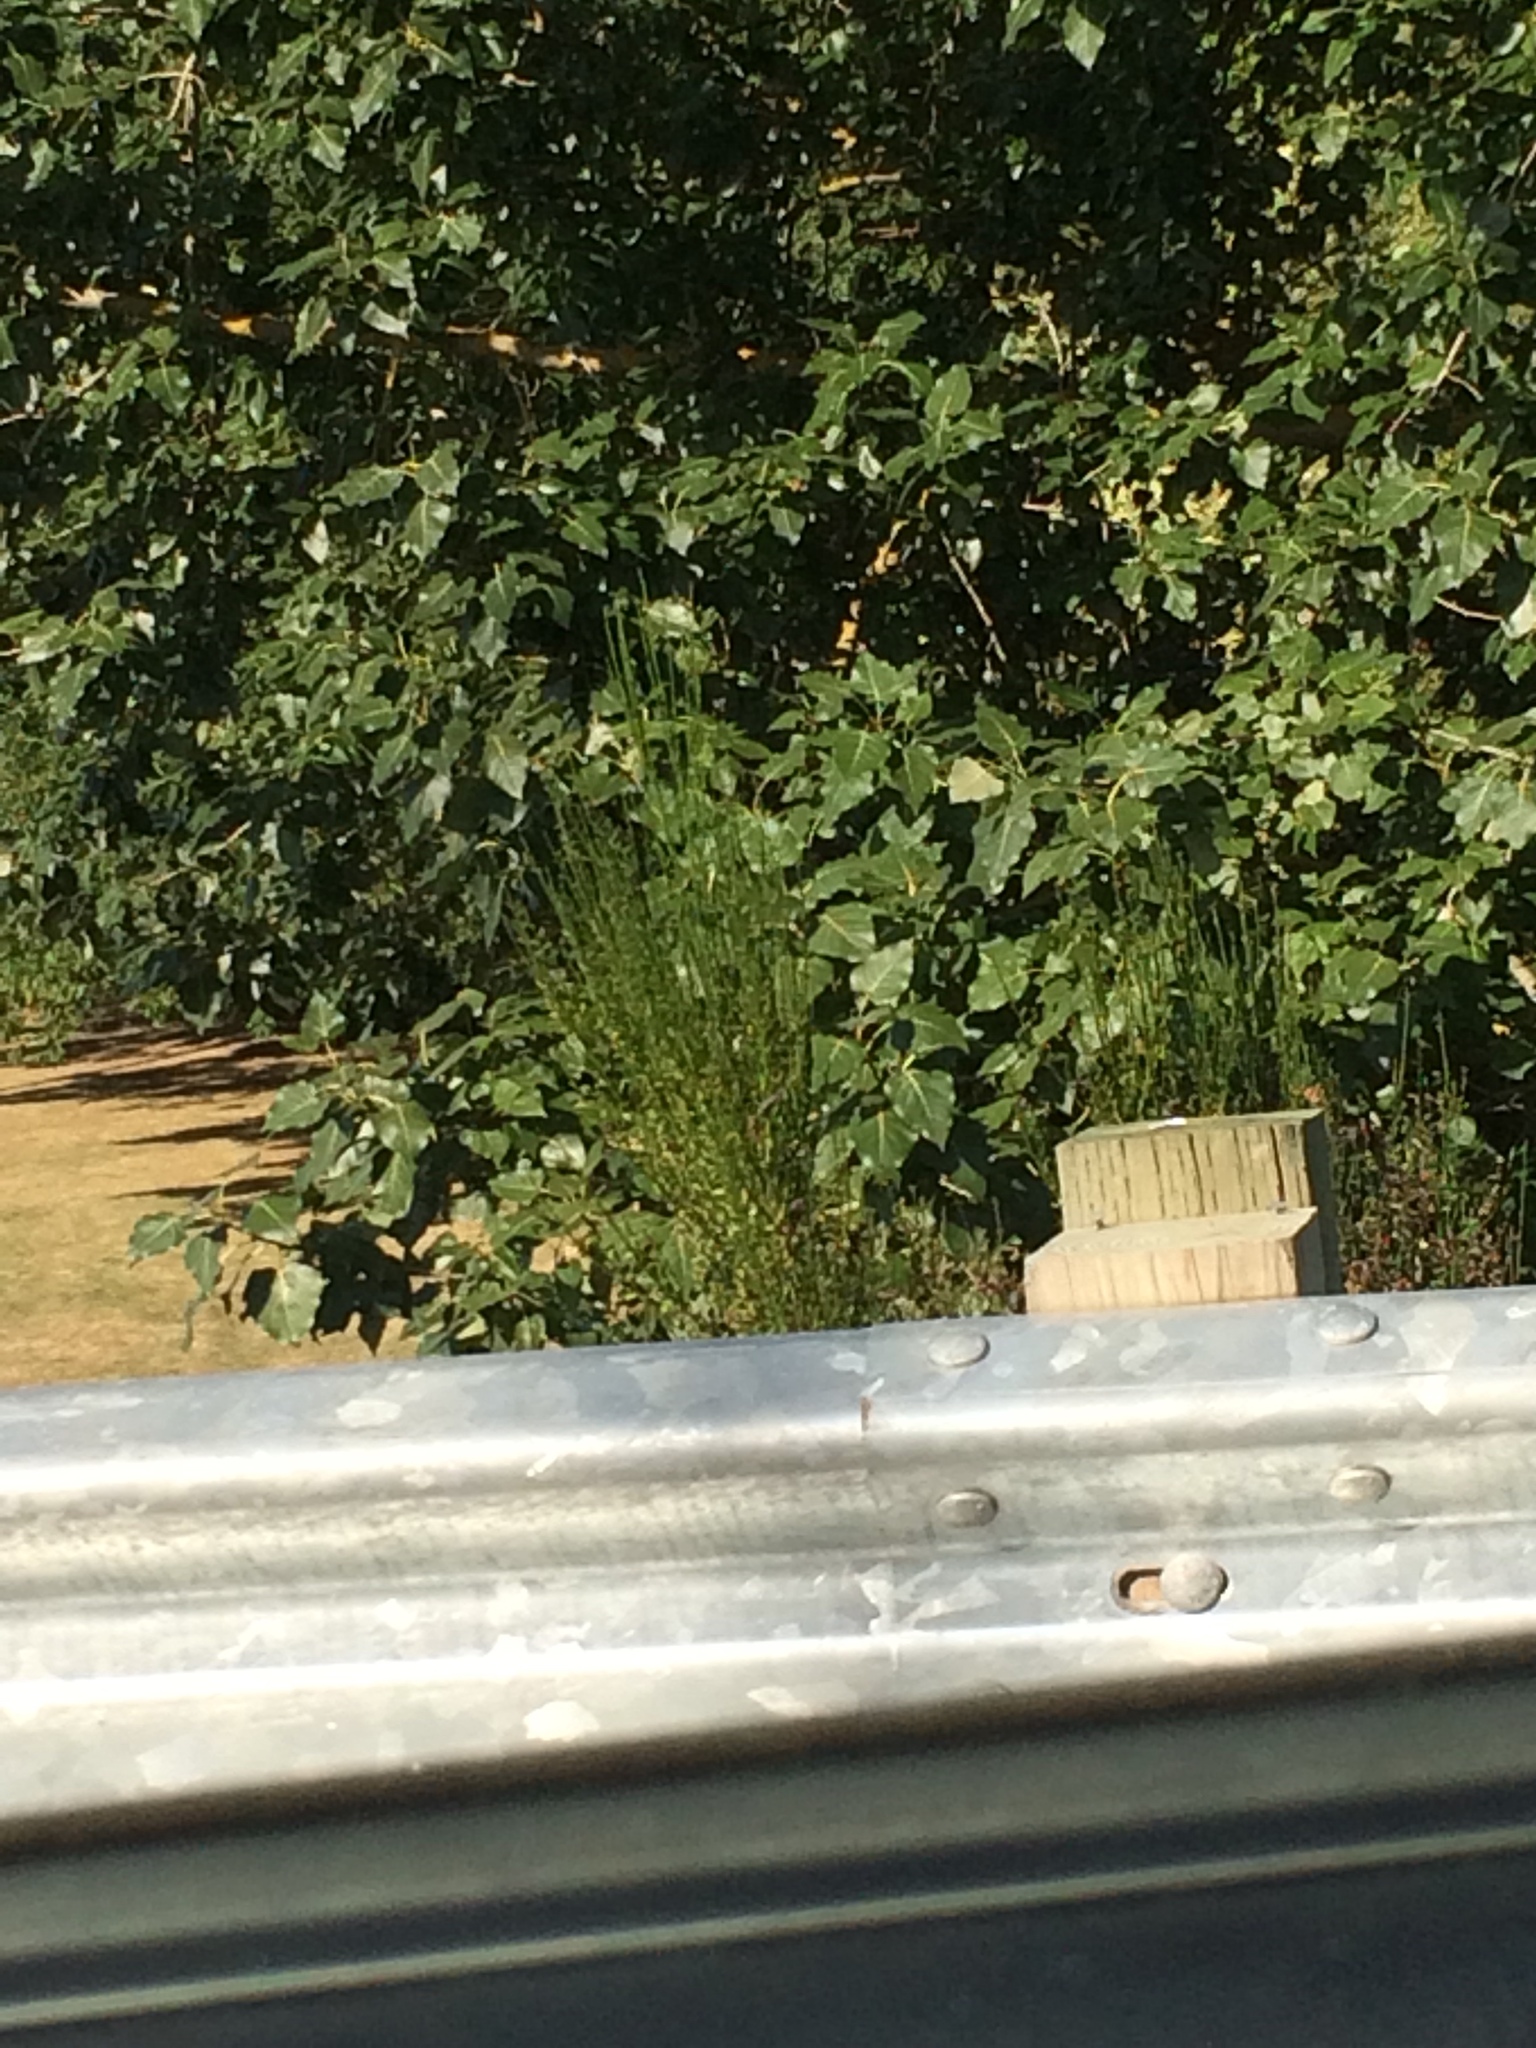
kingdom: Plantae
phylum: Tracheophyta
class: Magnoliopsida
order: Fabales
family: Fabaceae
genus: Cytisus
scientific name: Cytisus scoparius
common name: Scotch broom
